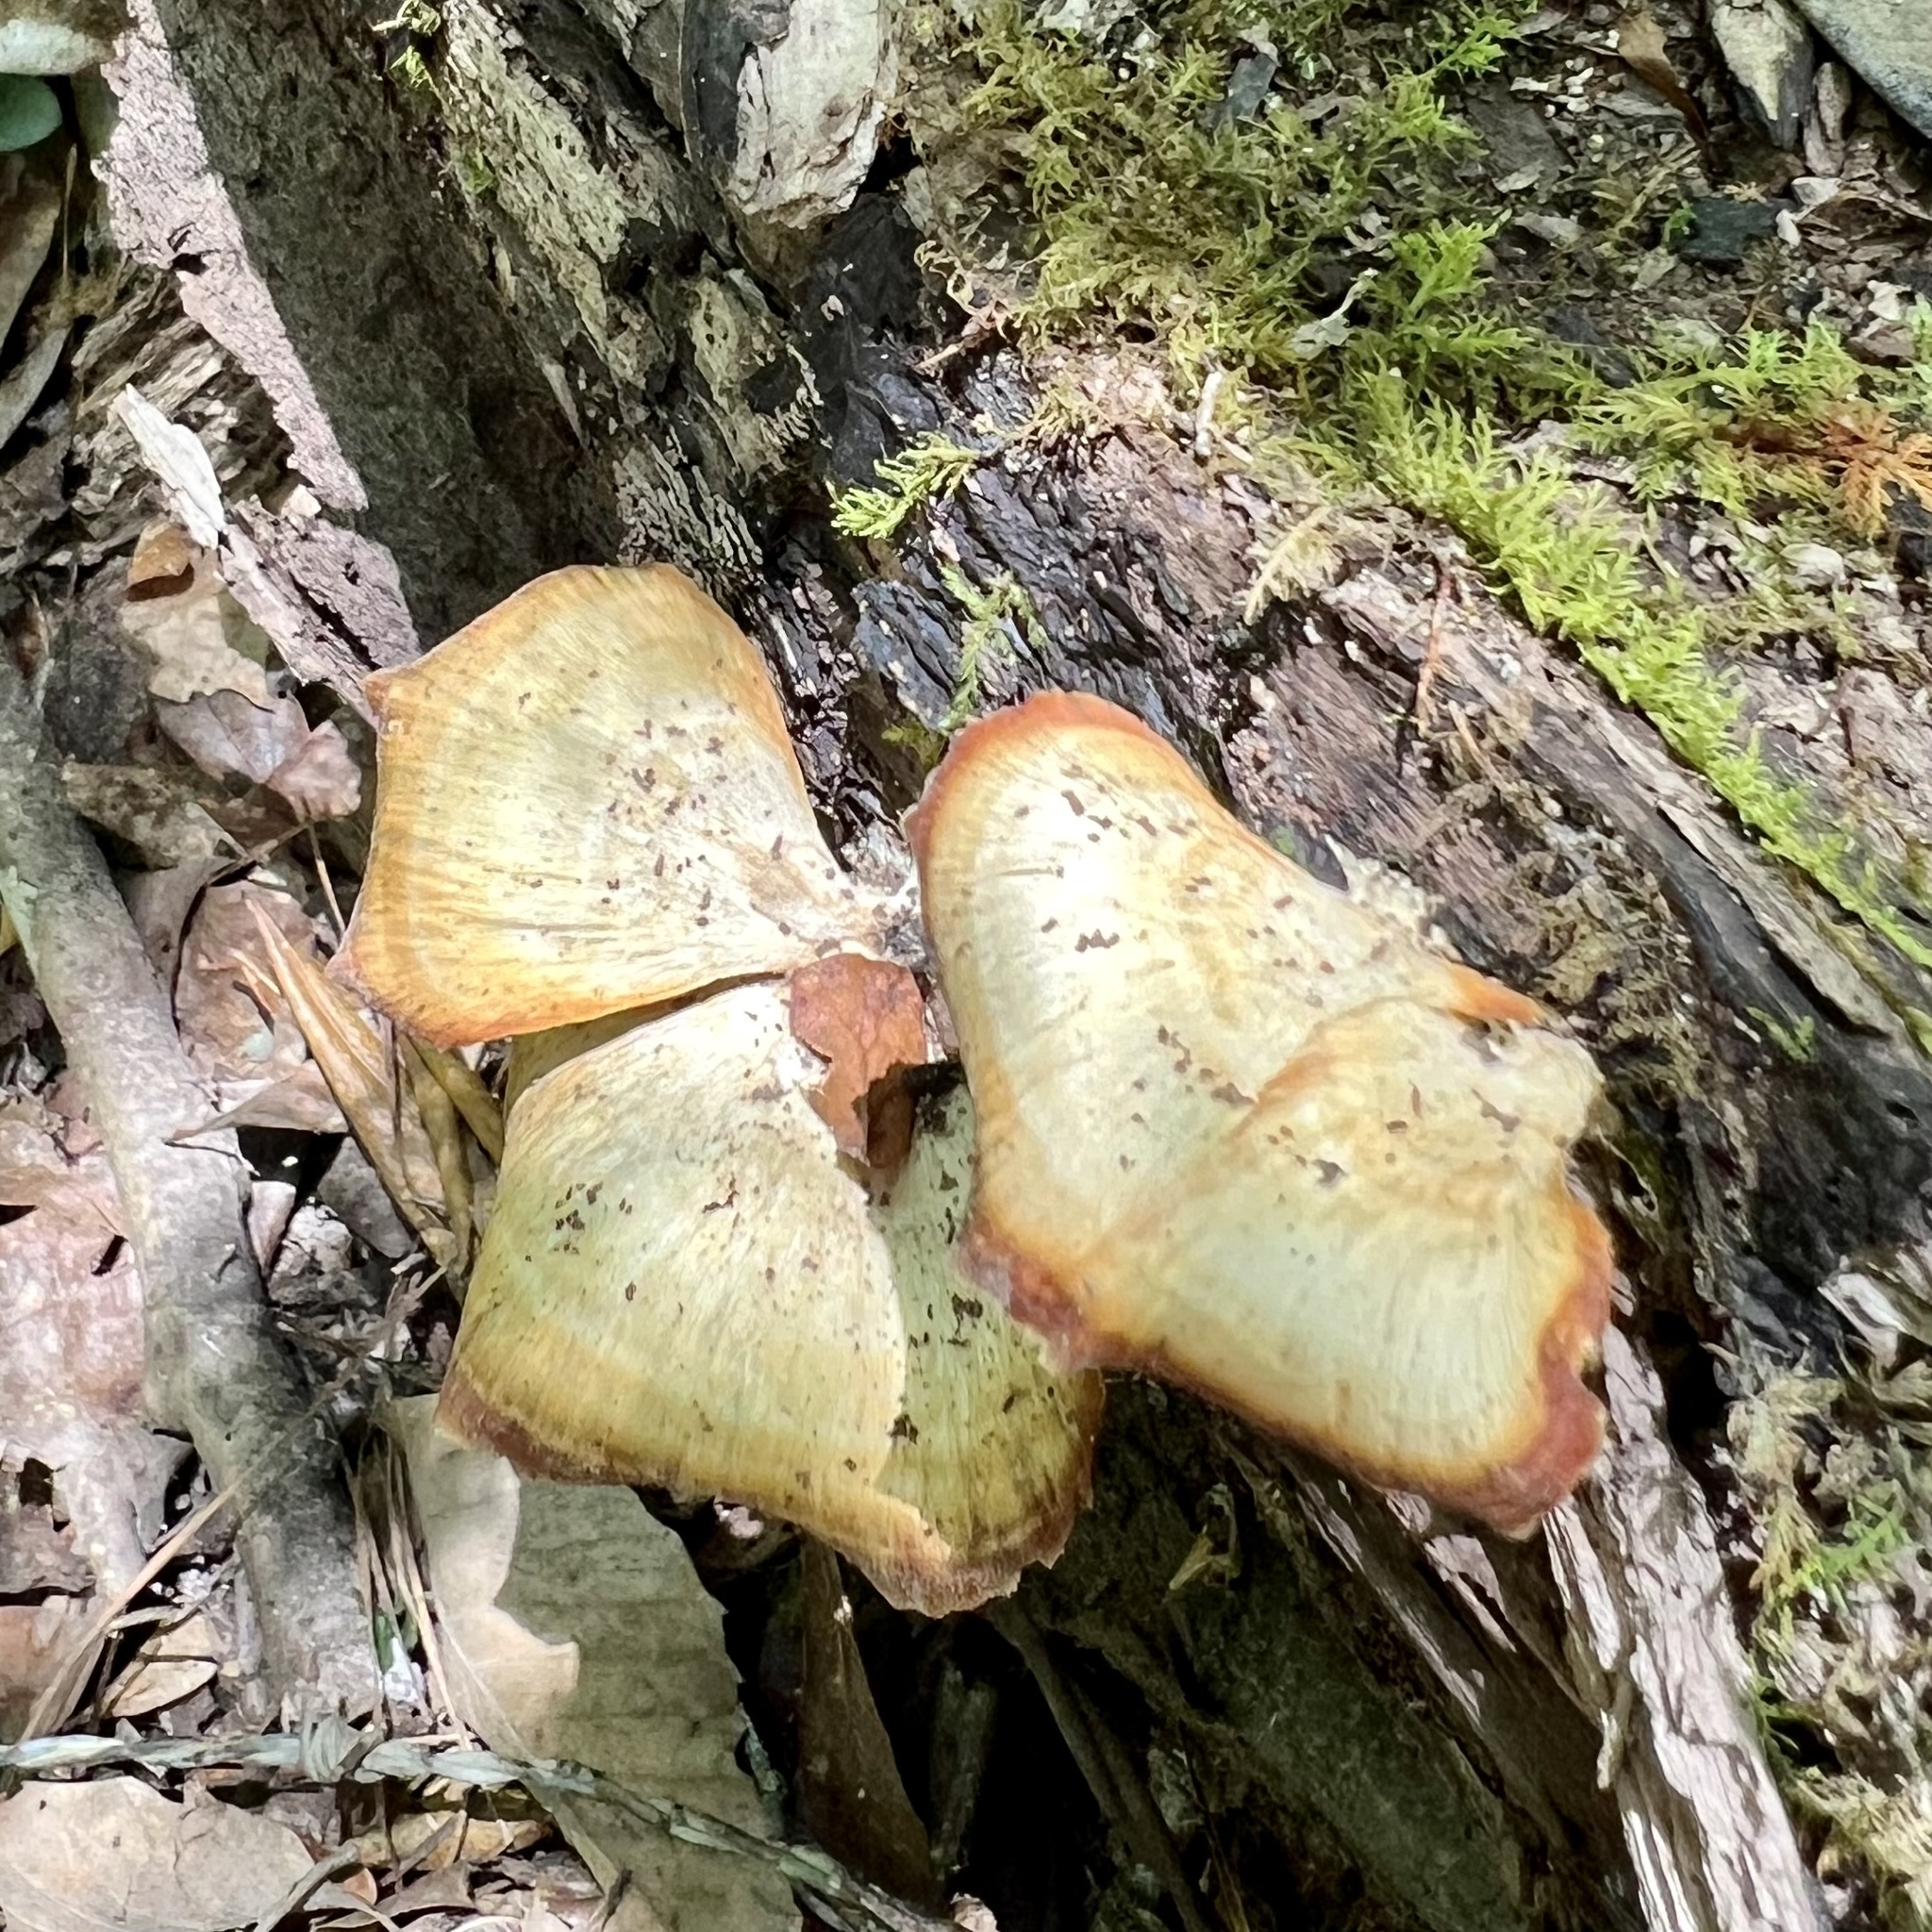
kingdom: Fungi
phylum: Basidiomycota
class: Agaricomycetes
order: Polyporales
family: Polyporaceae
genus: Microporellus
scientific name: Microporellus obovatus
